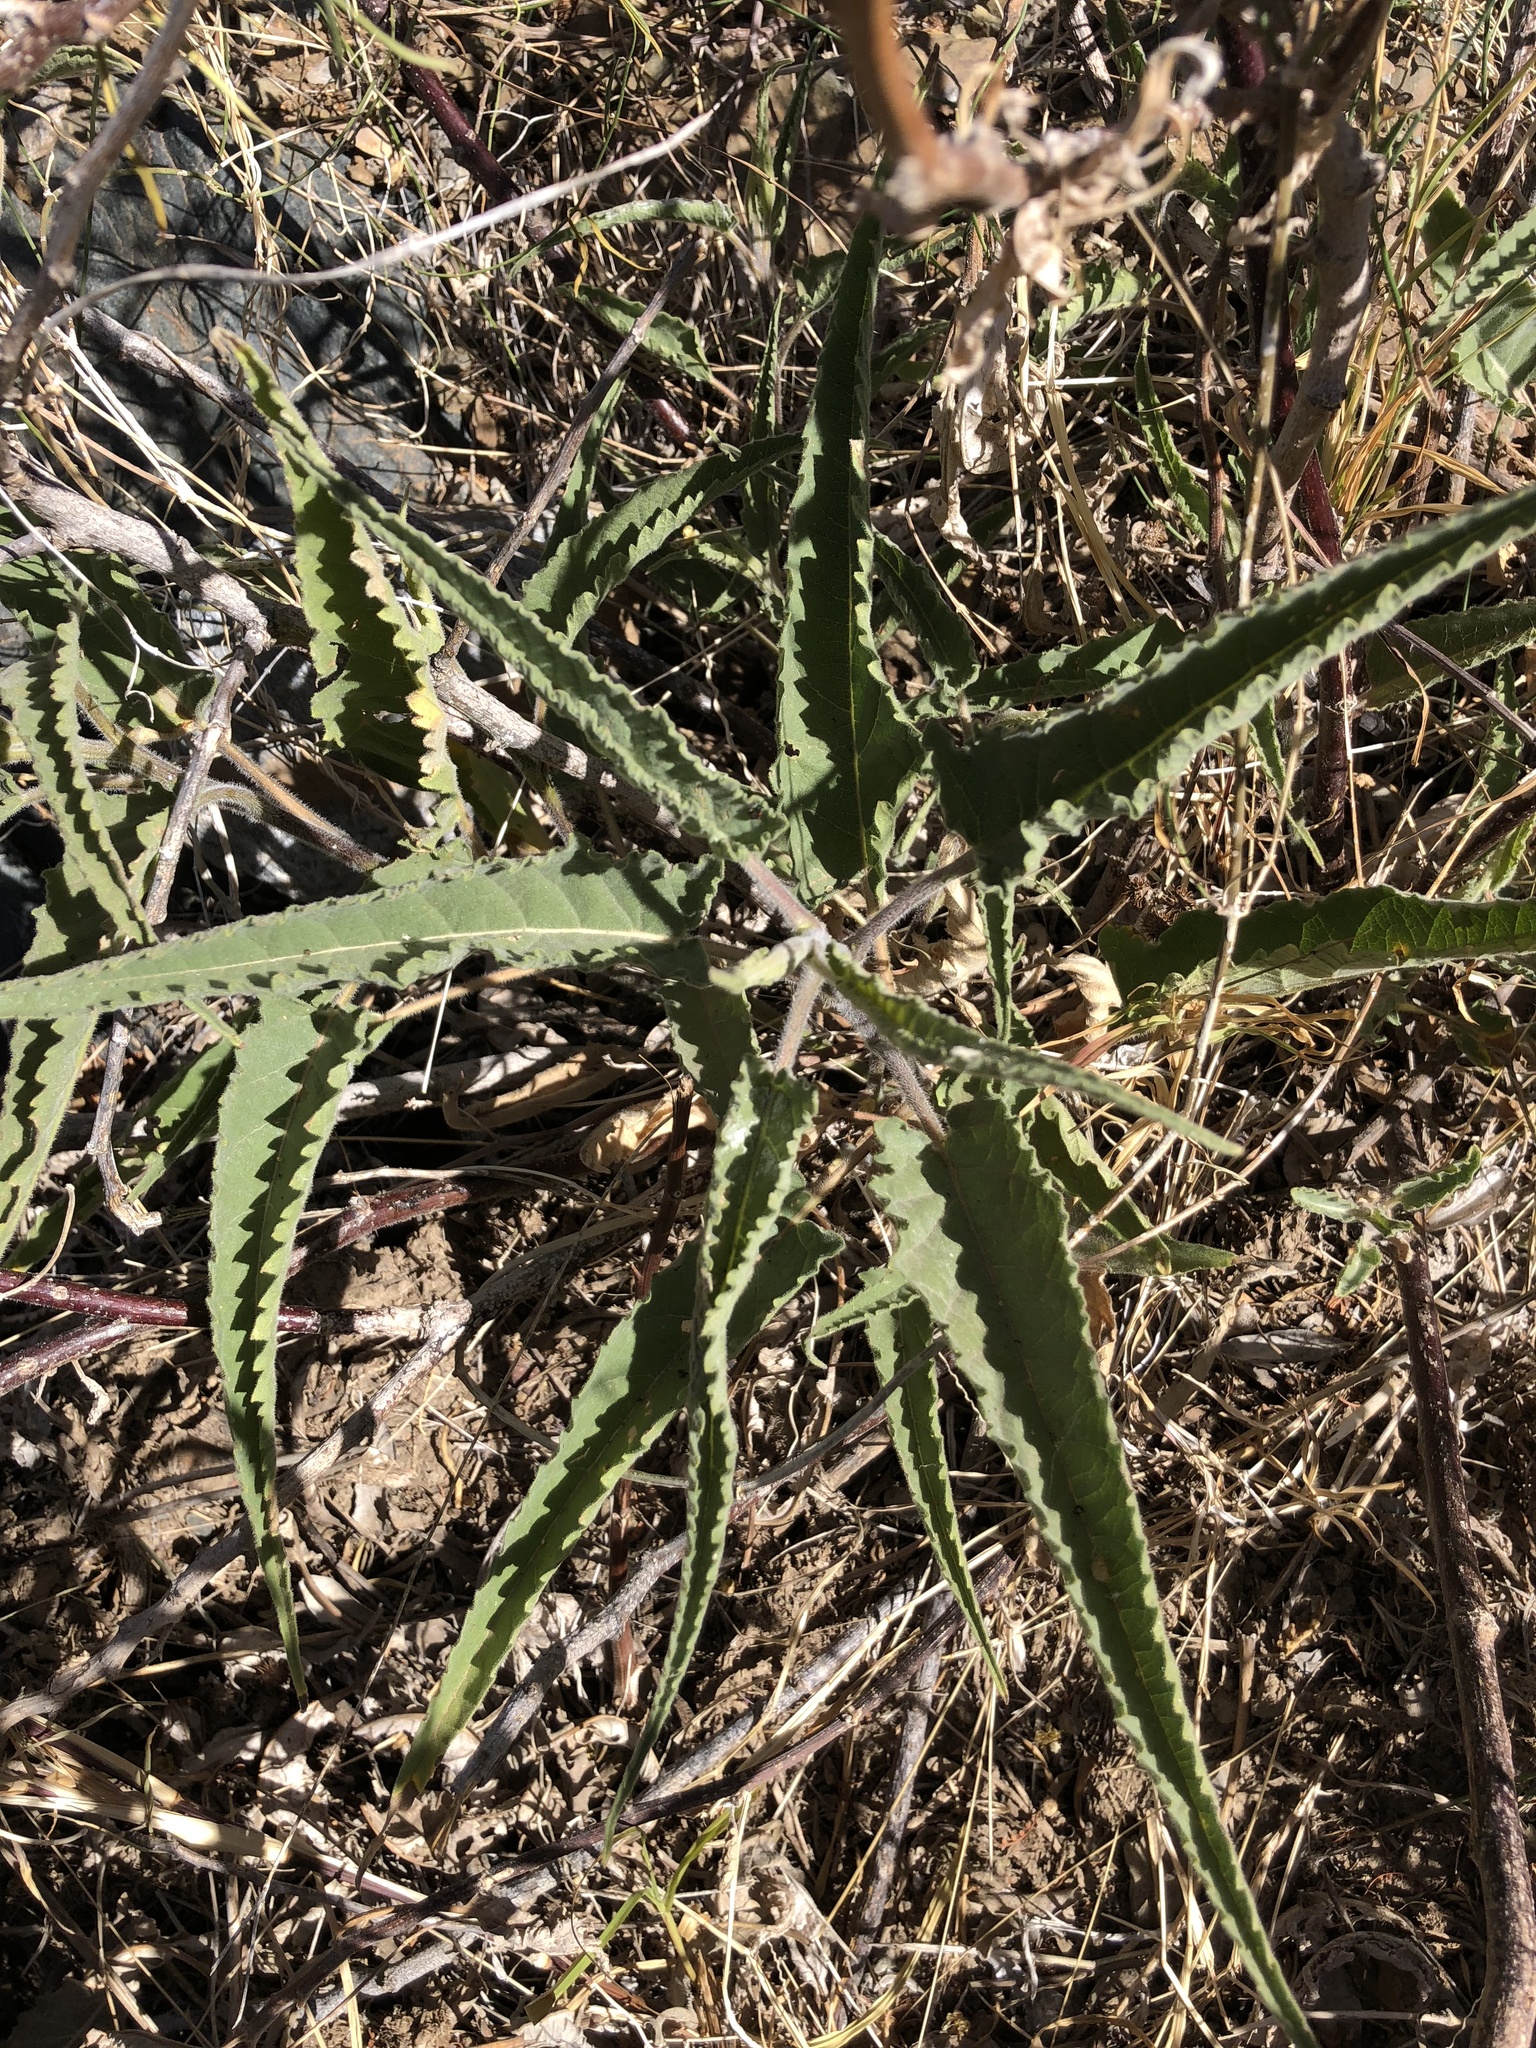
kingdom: Plantae
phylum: Tracheophyta
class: Magnoliopsida
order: Asterales
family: Asteraceae
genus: Ambrosia
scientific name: Ambrosia ambrosioides
